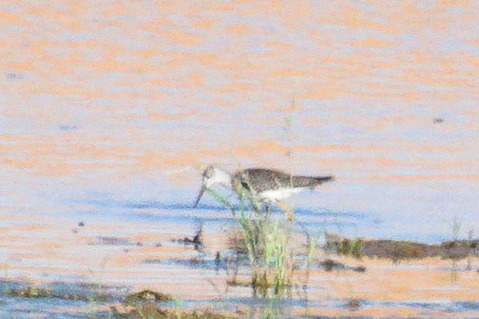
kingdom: Animalia
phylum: Chordata
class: Aves
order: Charadriiformes
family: Scolopacidae
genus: Tringa
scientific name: Tringa flavipes
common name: Lesser yellowlegs
